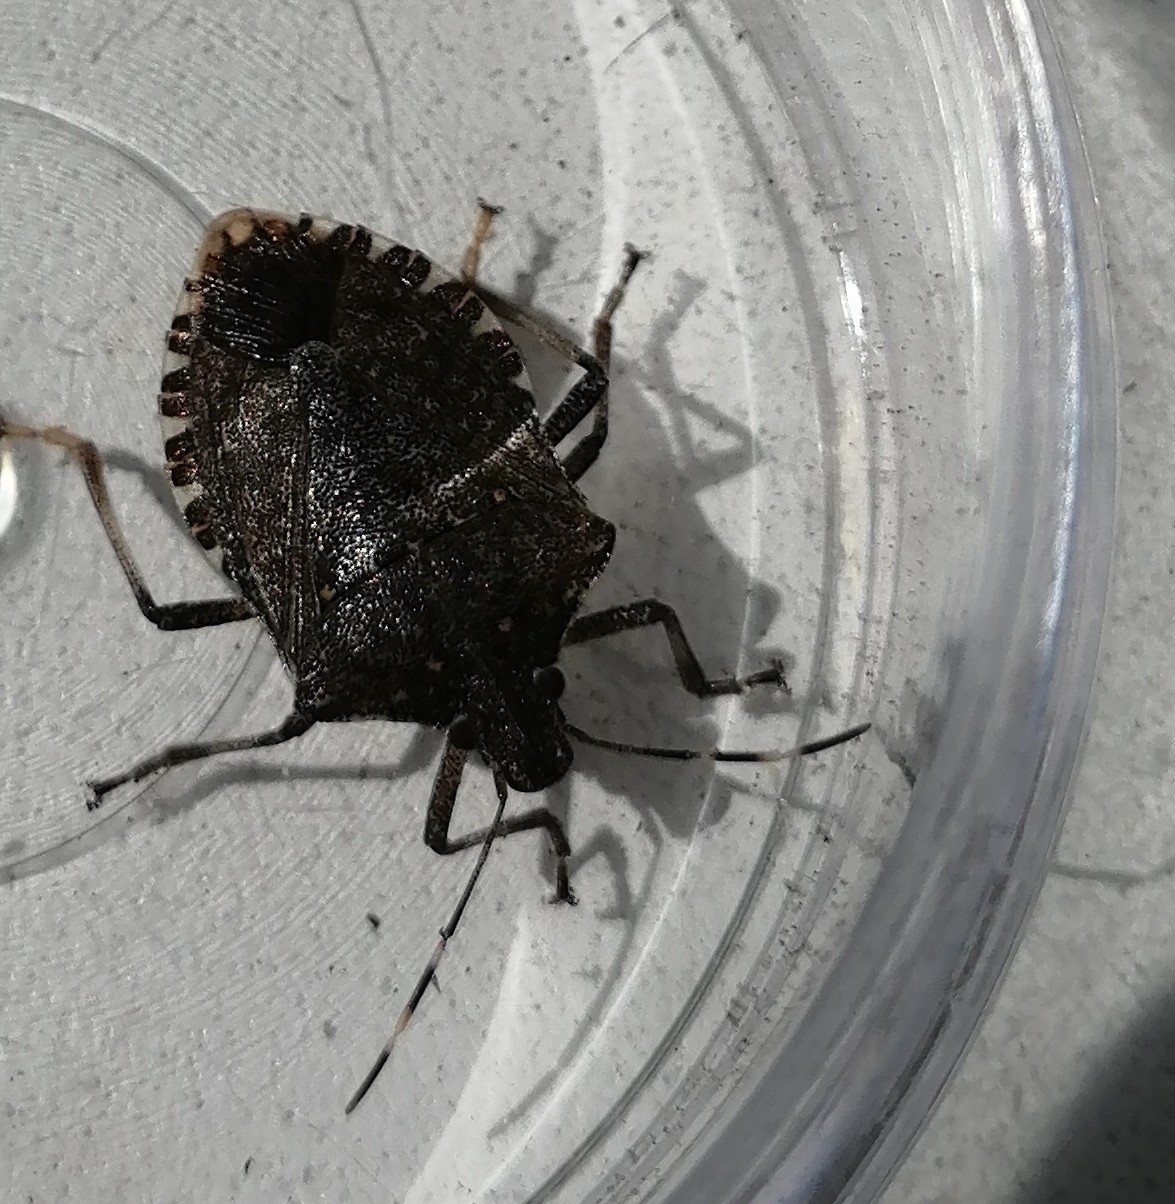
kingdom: Animalia
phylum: Arthropoda
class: Insecta
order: Hemiptera
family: Pentatomidae
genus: Halyomorpha
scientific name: Halyomorpha halys
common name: Brown marmorated stink bug
